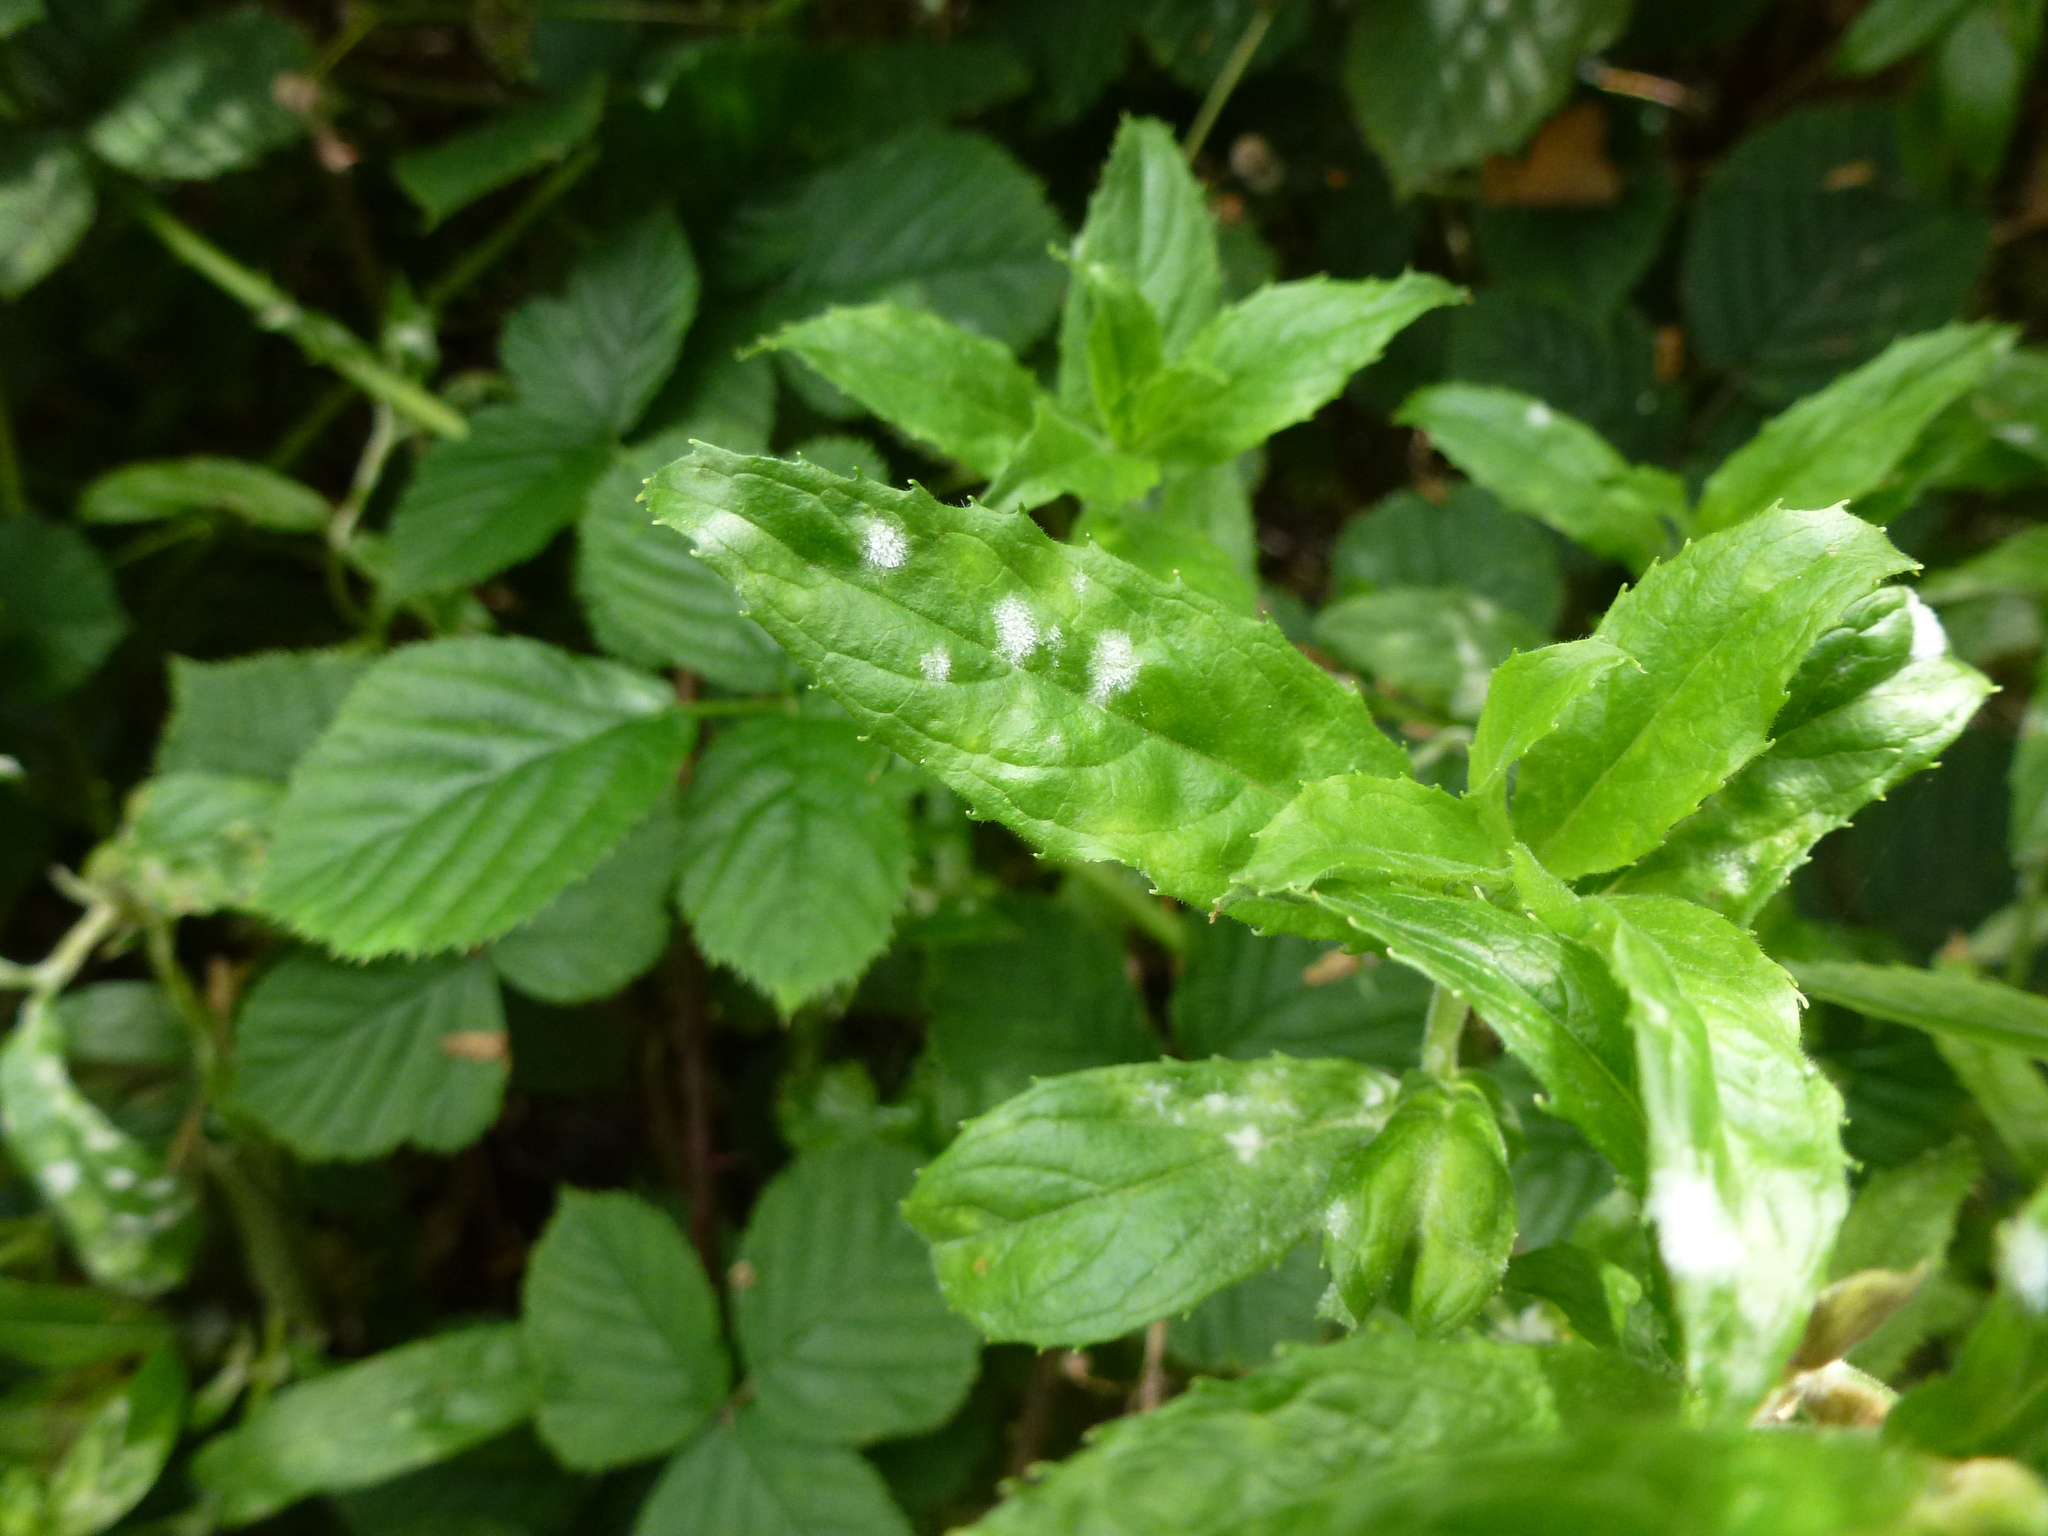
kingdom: Fungi
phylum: Ascomycota
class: Leotiomycetes
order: Helotiales
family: Erysiphaceae
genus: Podosphaera
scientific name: Podosphaera epilobii
